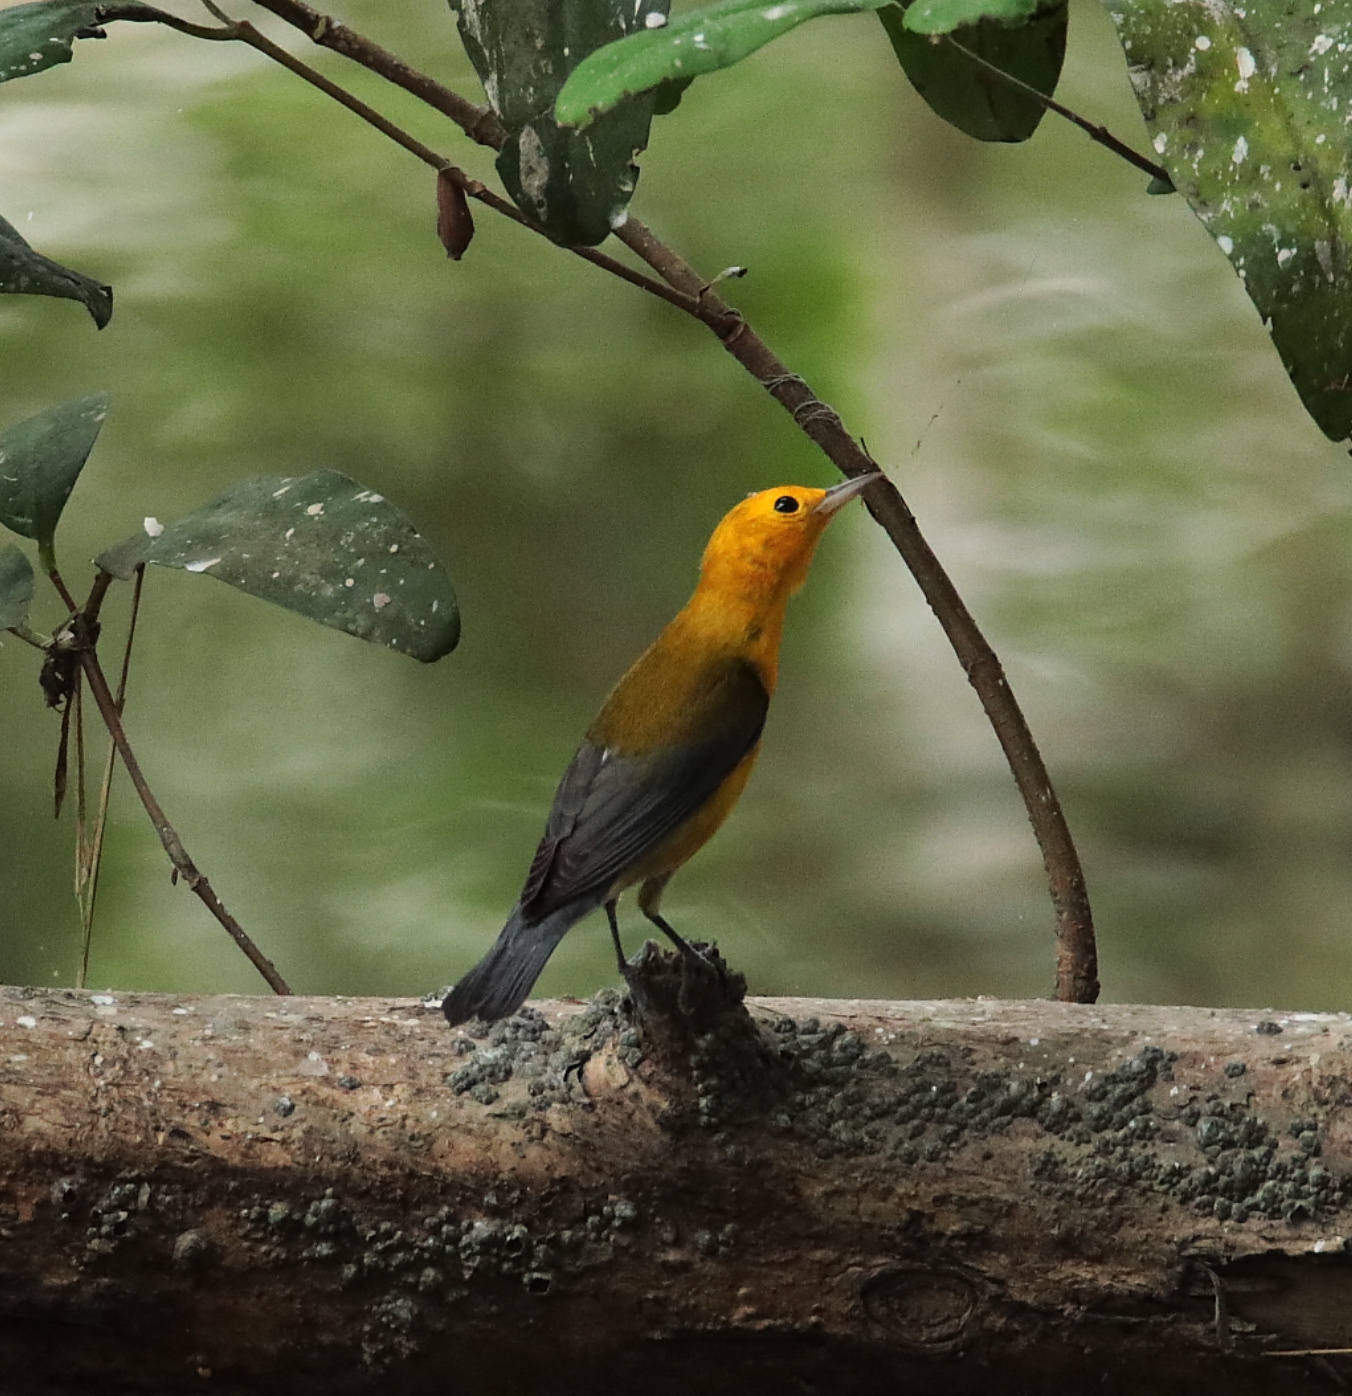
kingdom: Animalia
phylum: Chordata
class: Aves
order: Passeriformes
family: Parulidae
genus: Protonotaria
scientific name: Protonotaria citrea
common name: Prothonotary warbler
